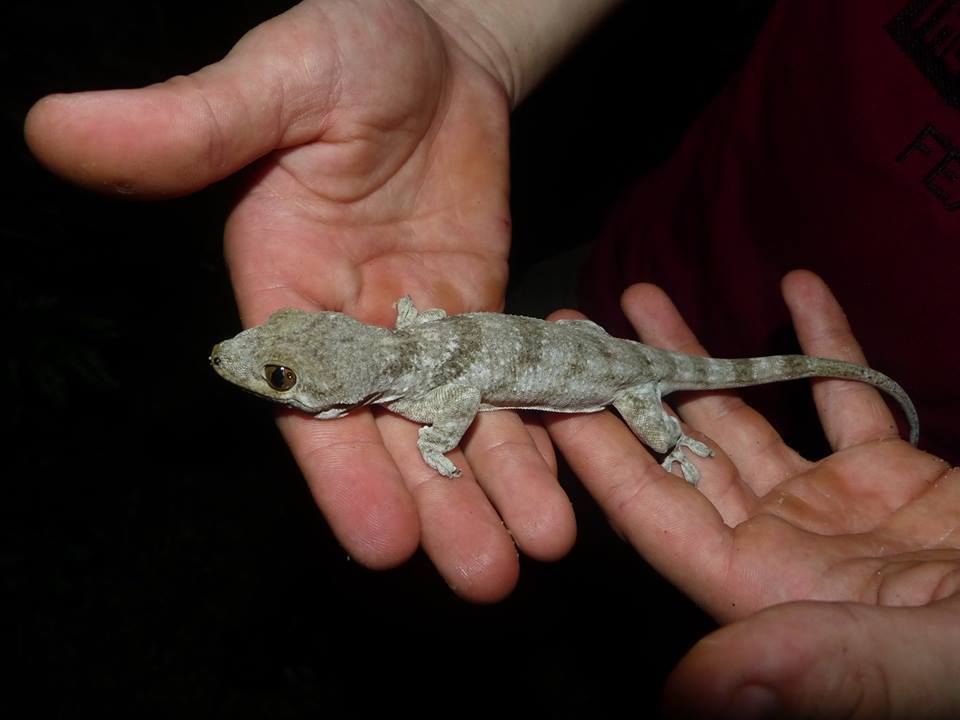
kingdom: Animalia
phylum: Chordata
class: Squamata
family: Gekkonidae
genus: Blaesodactylus
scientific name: Blaesodactylus boivini
